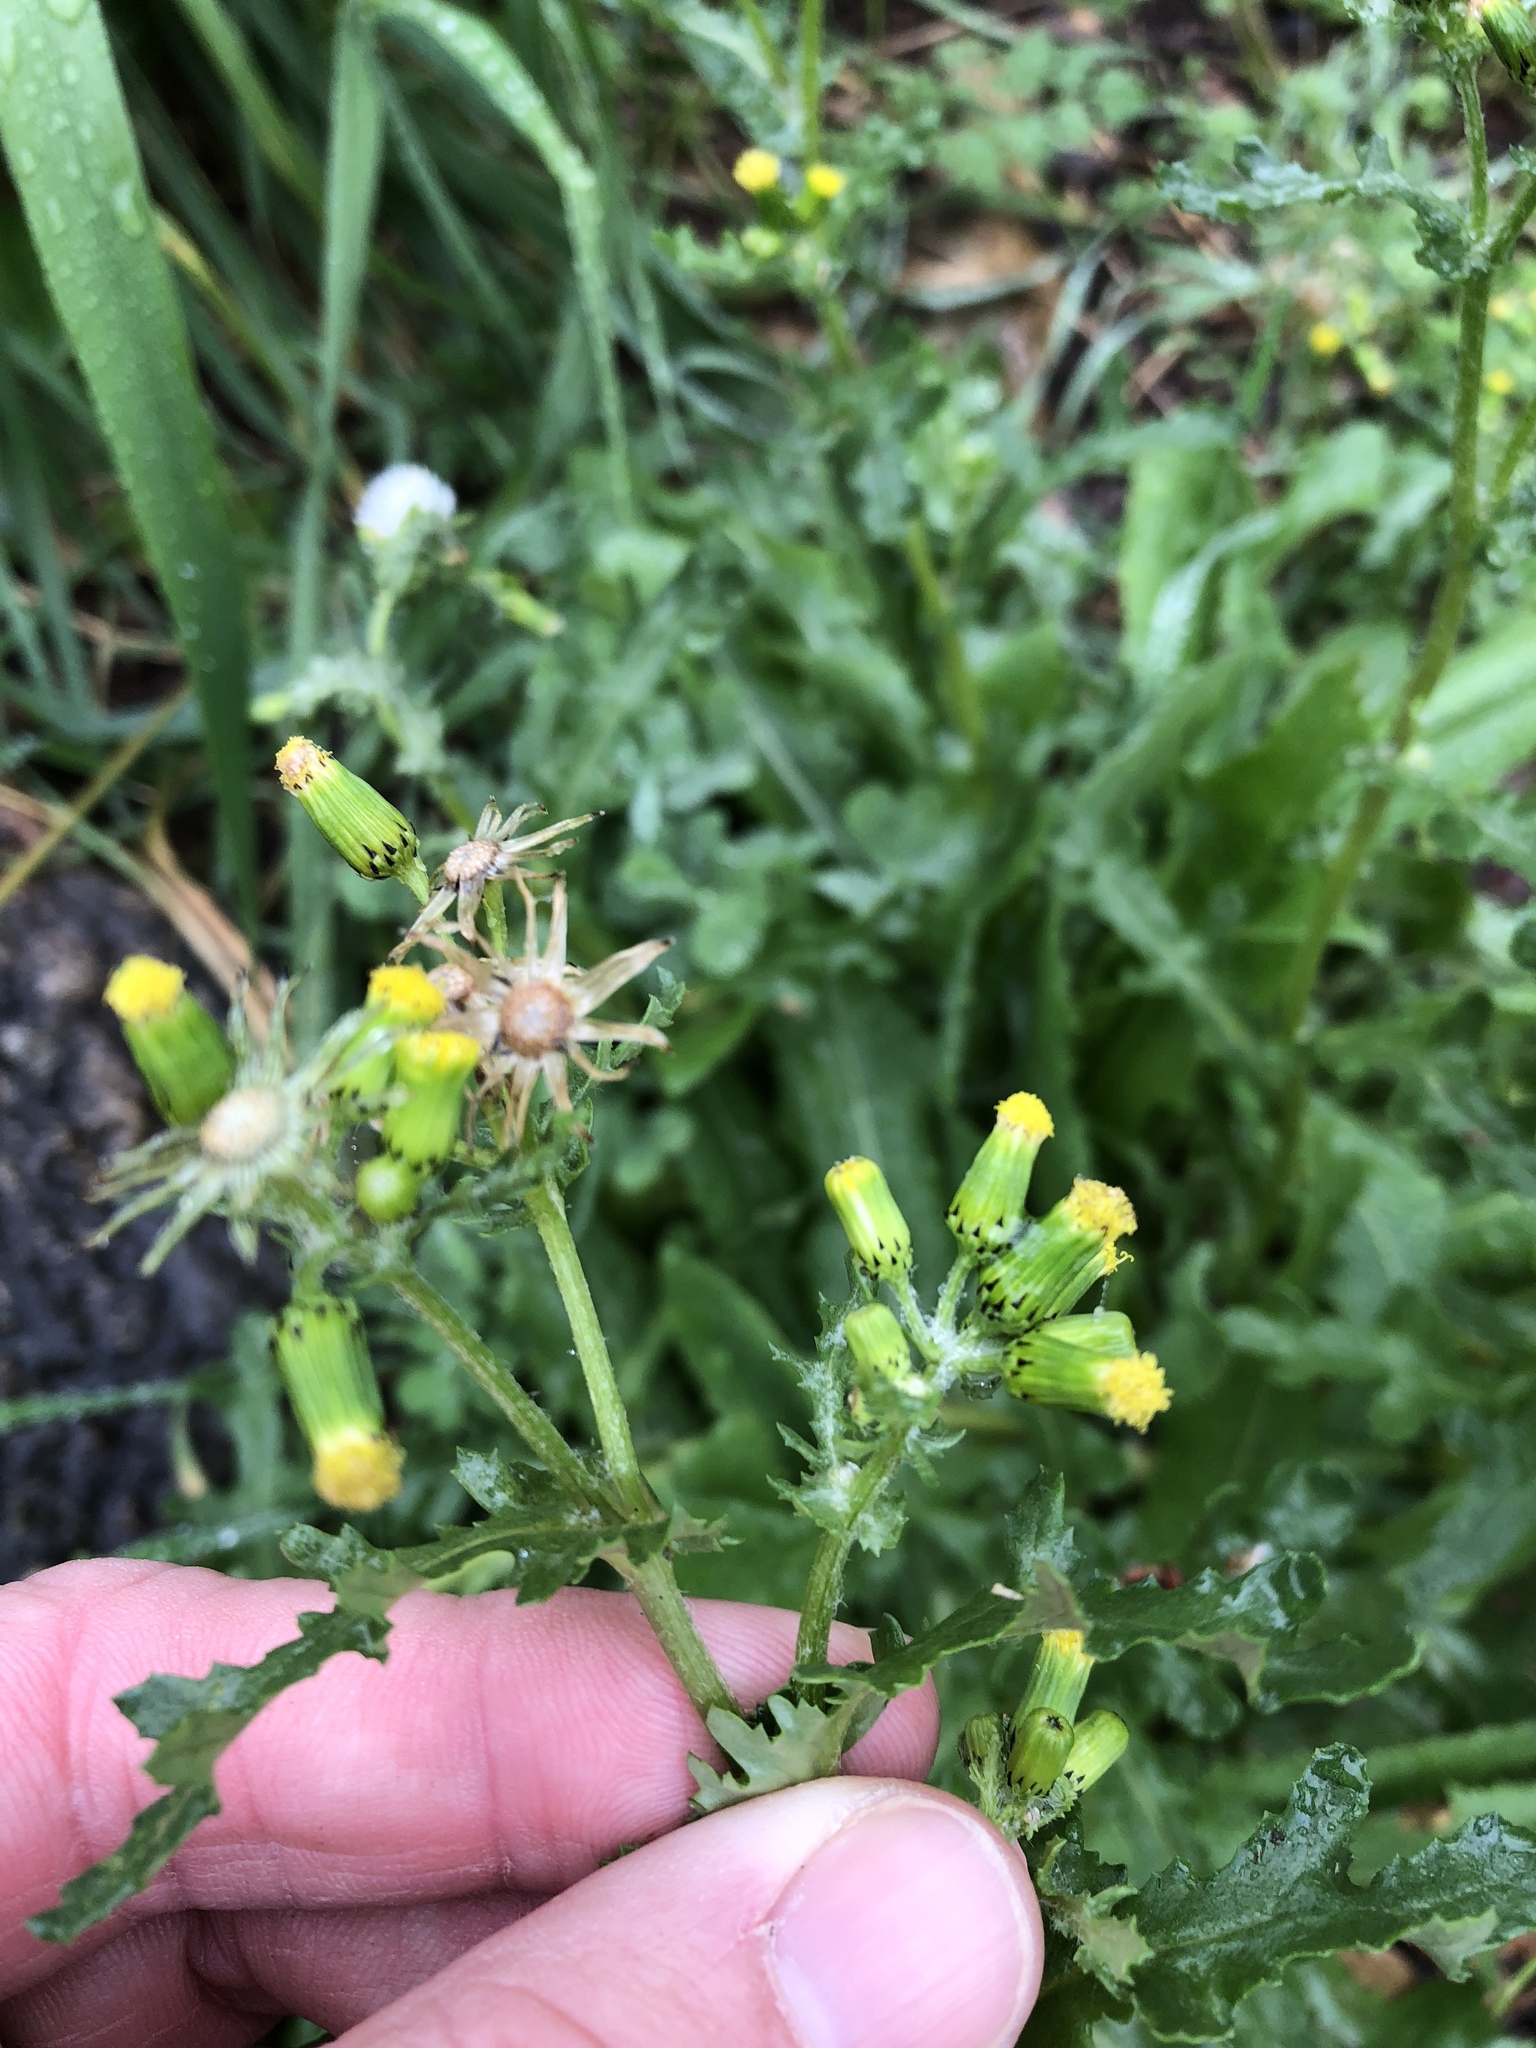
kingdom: Plantae
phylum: Tracheophyta
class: Magnoliopsida
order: Asterales
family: Asteraceae
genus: Senecio
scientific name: Senecio vulgaris
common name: Old-man-in-the-spring
